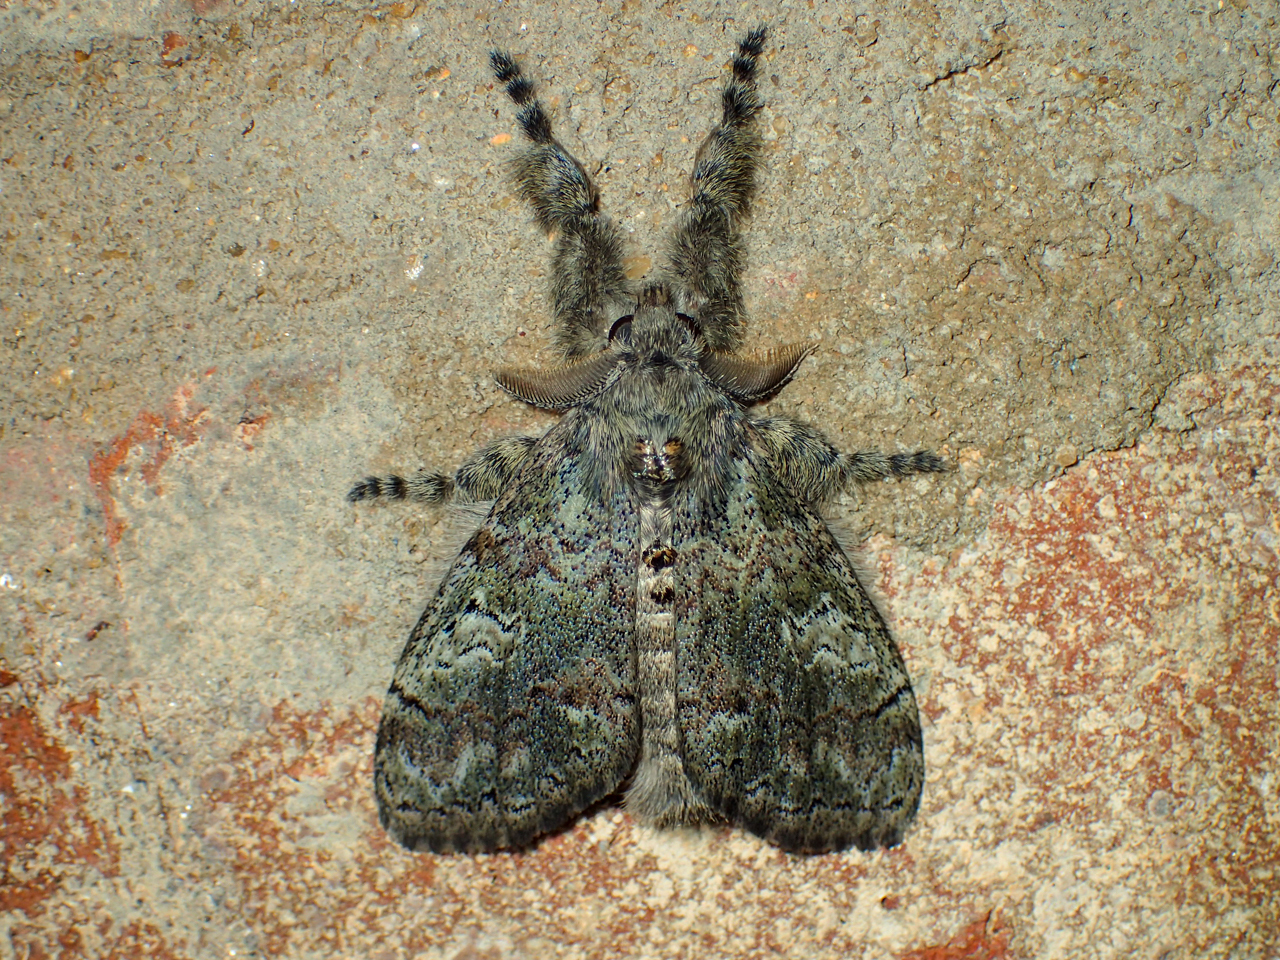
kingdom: Animalia
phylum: Arthropoda
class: Insecta
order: Lepidoptera
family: Erebidae
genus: Dasychira
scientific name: Dasychira meridionalis
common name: Southern tussock moth
